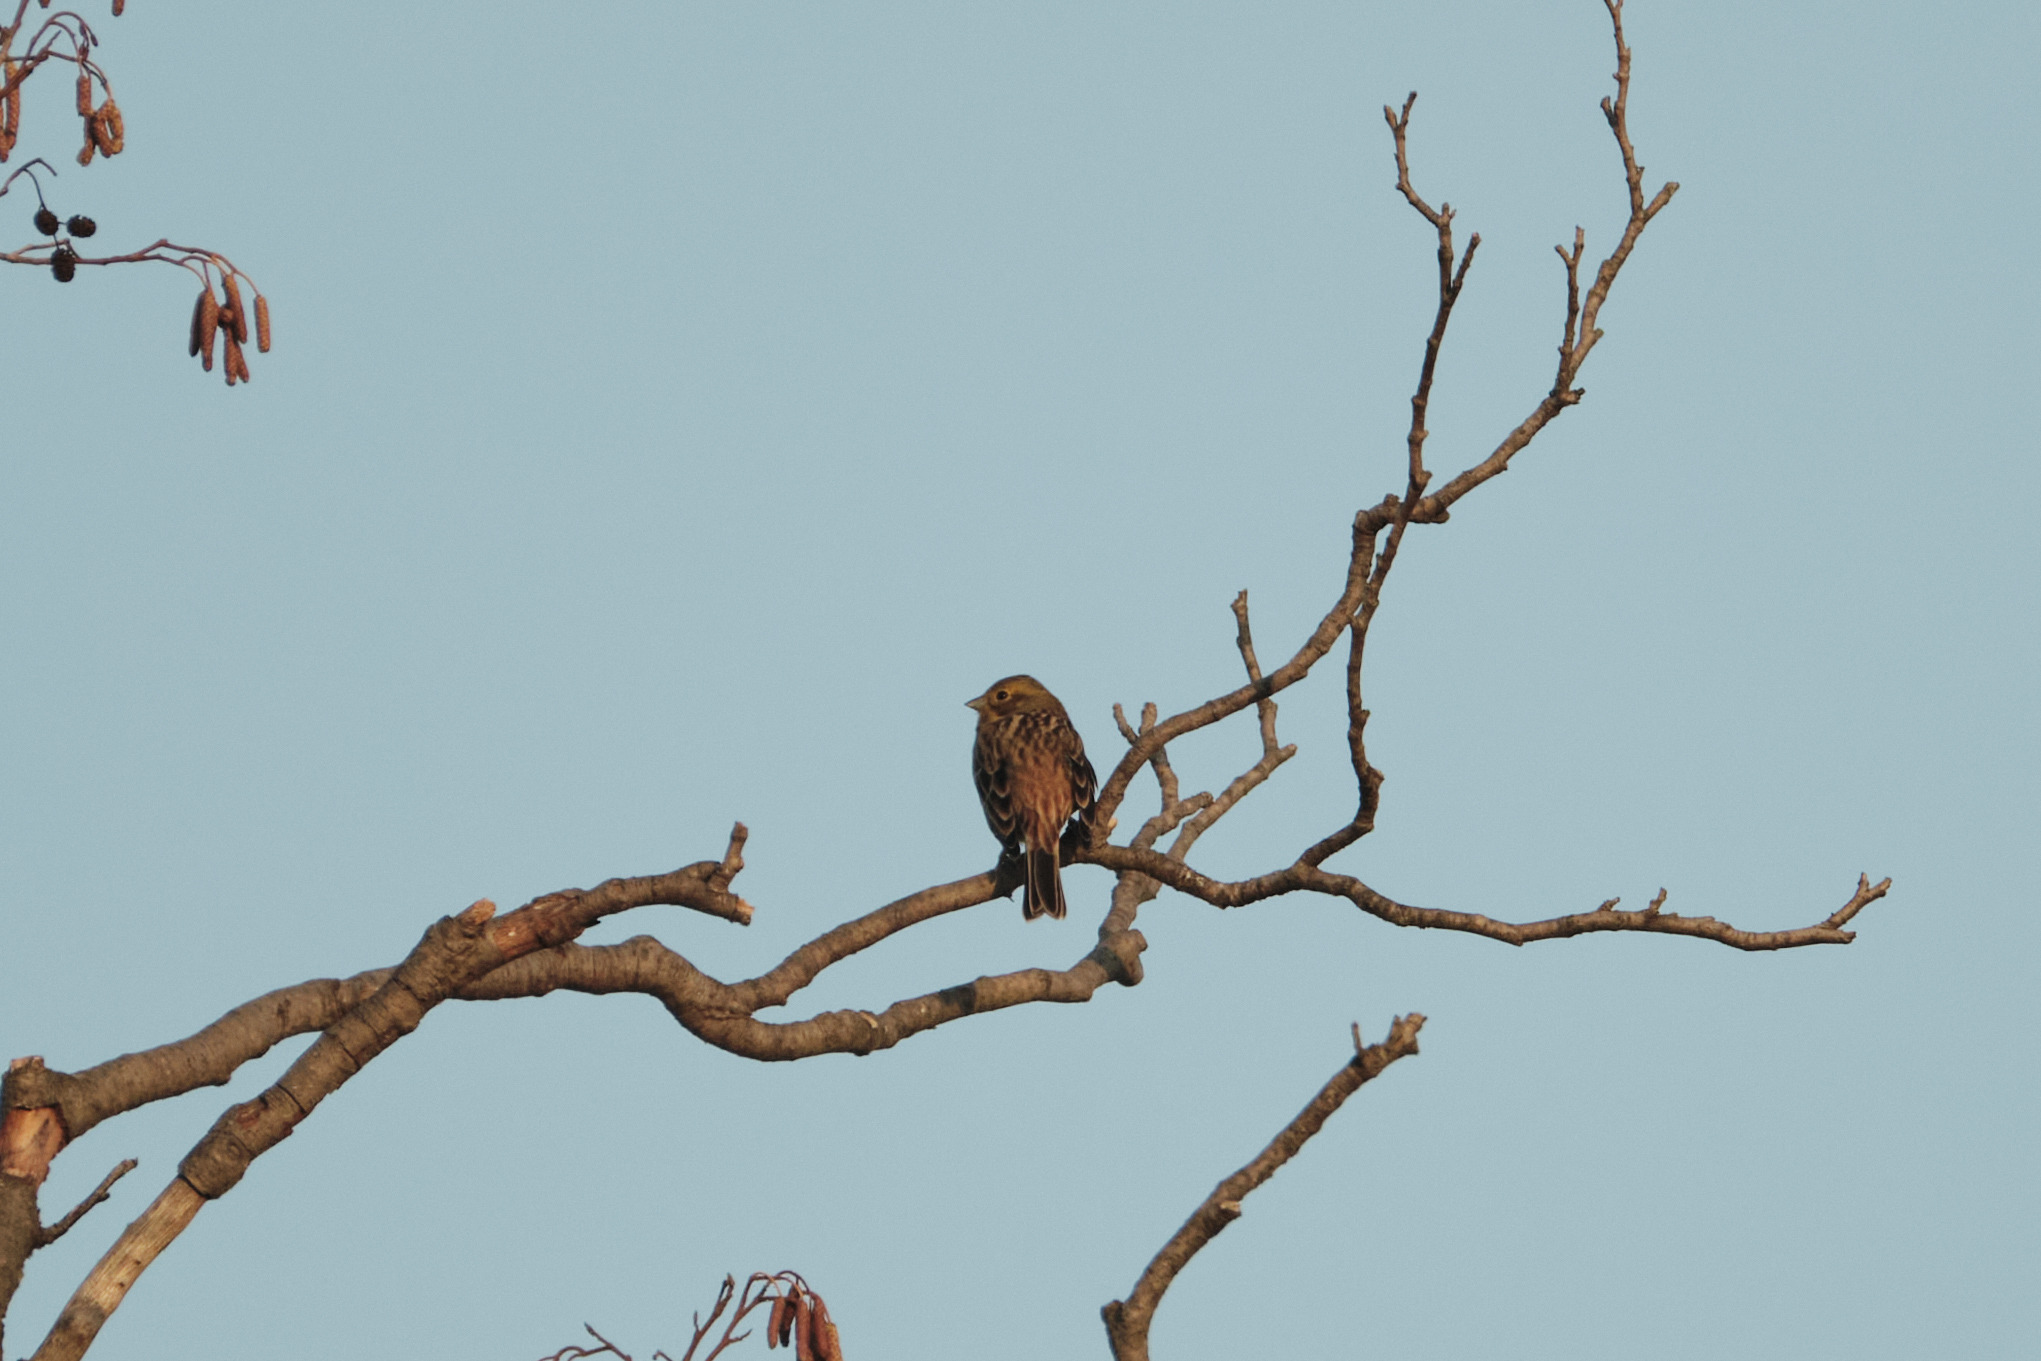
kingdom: Animalia
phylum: Chordata
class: Aves
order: Passeriformes
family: Emberizidae
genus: Emberiza
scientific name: Emberiza citrinella
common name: Yellowhammer
